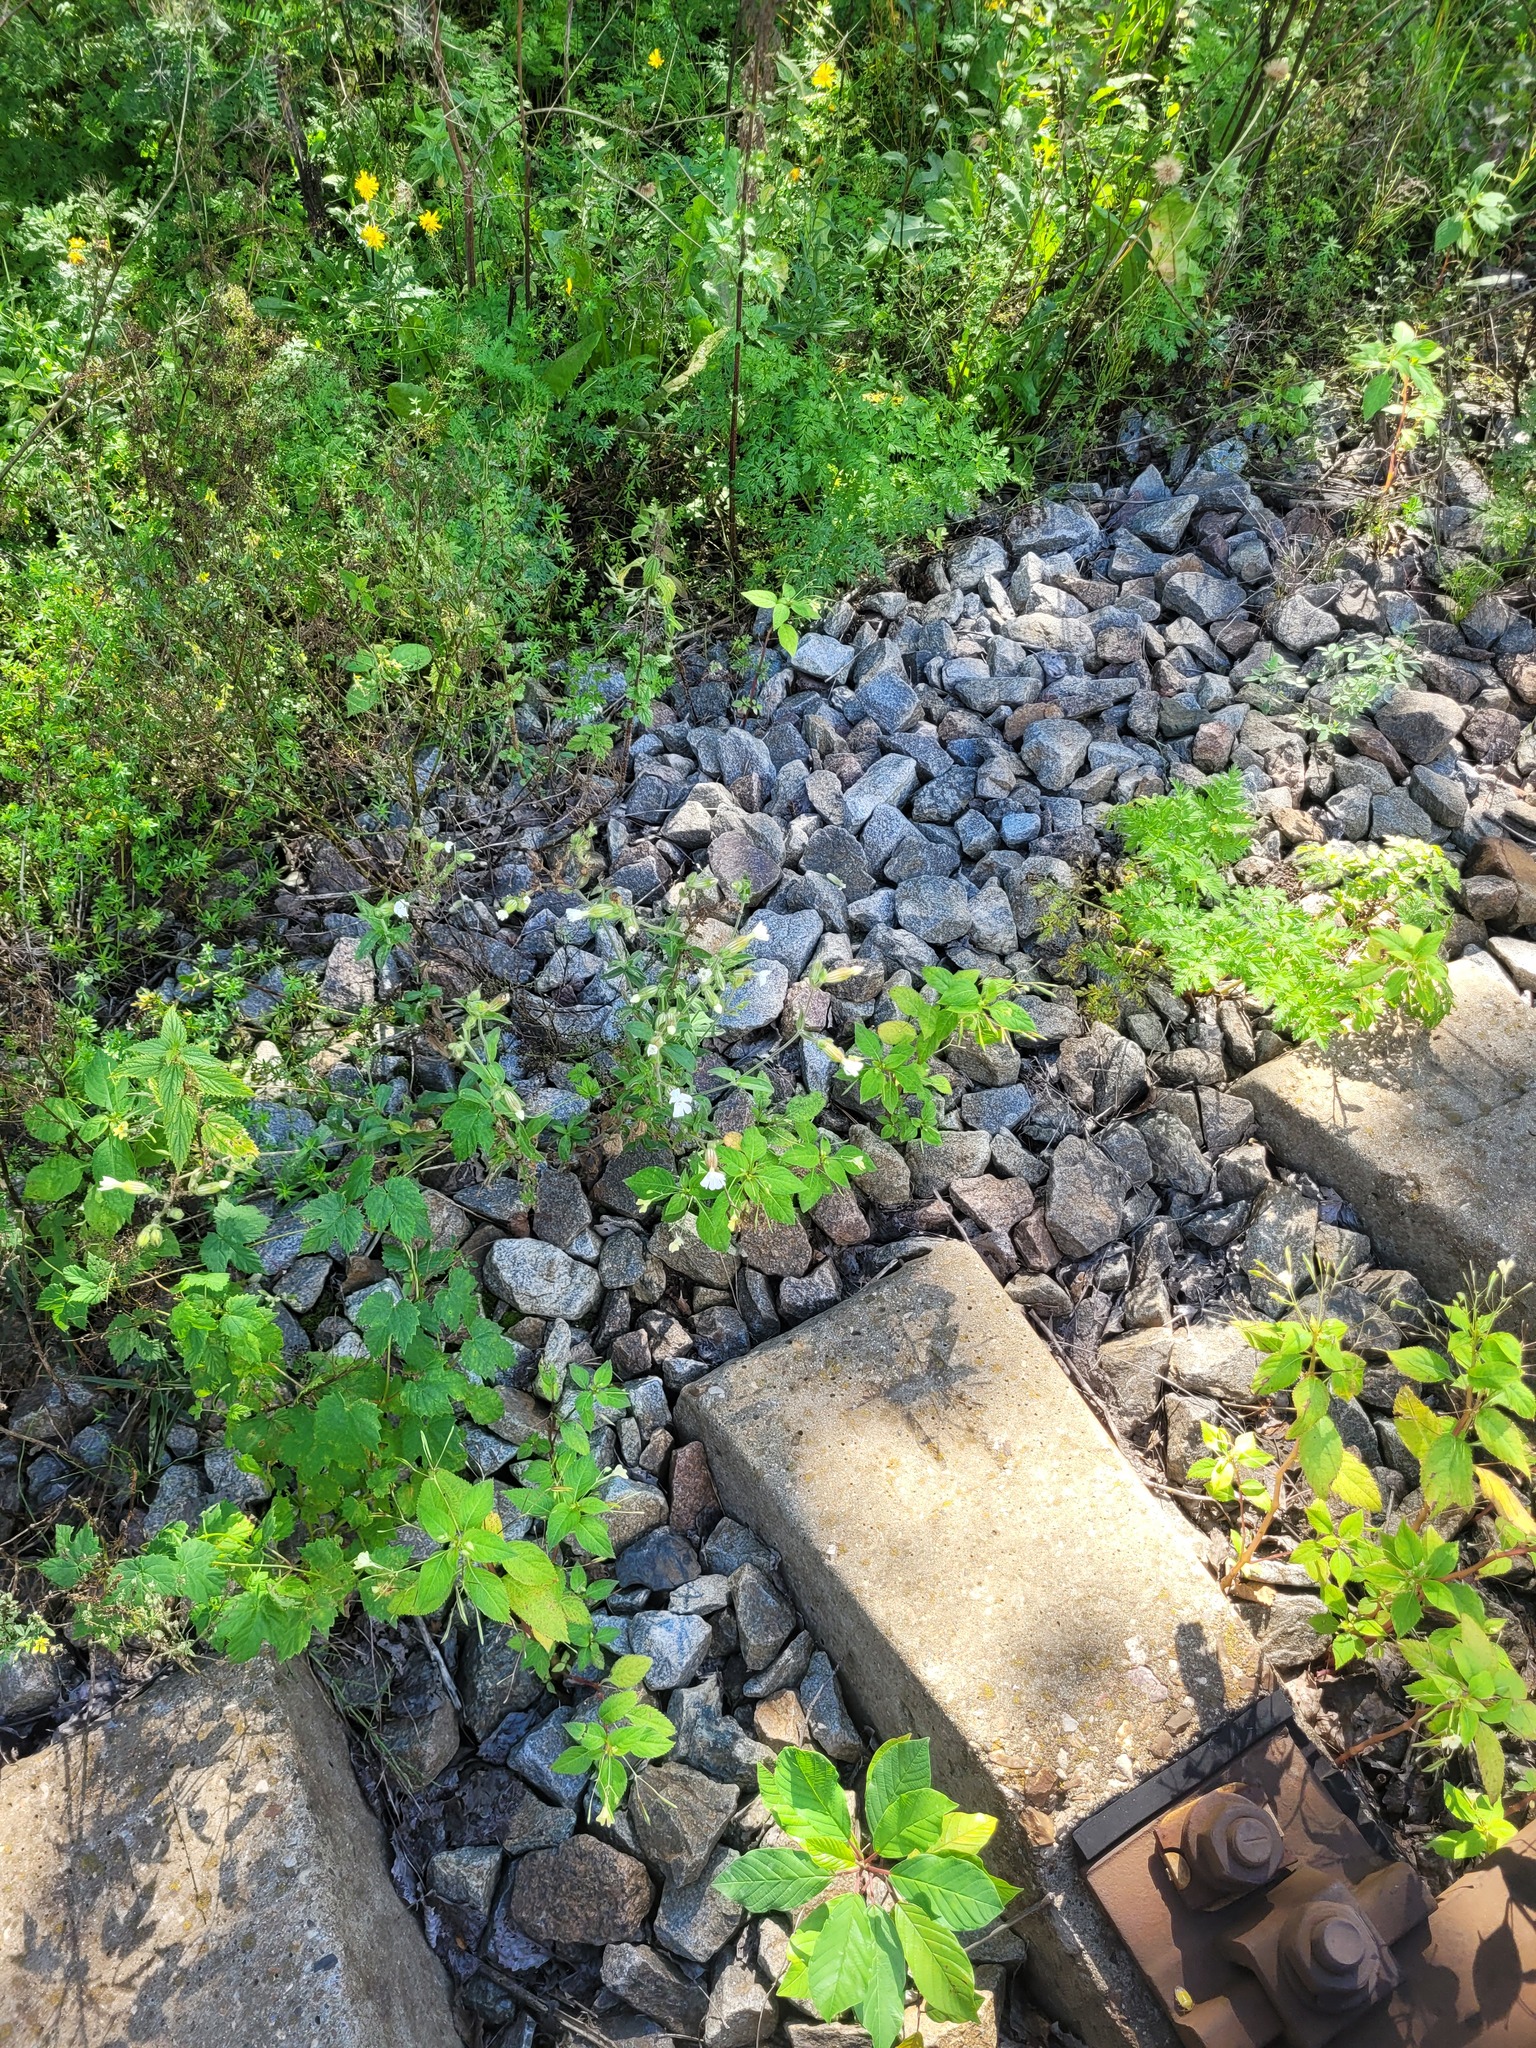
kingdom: Plantae
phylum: Tracheophyta
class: Magnoliopsida
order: Caryophyllales
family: Caryophyllaceae
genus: Silene
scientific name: Silene latifolia
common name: White campion
